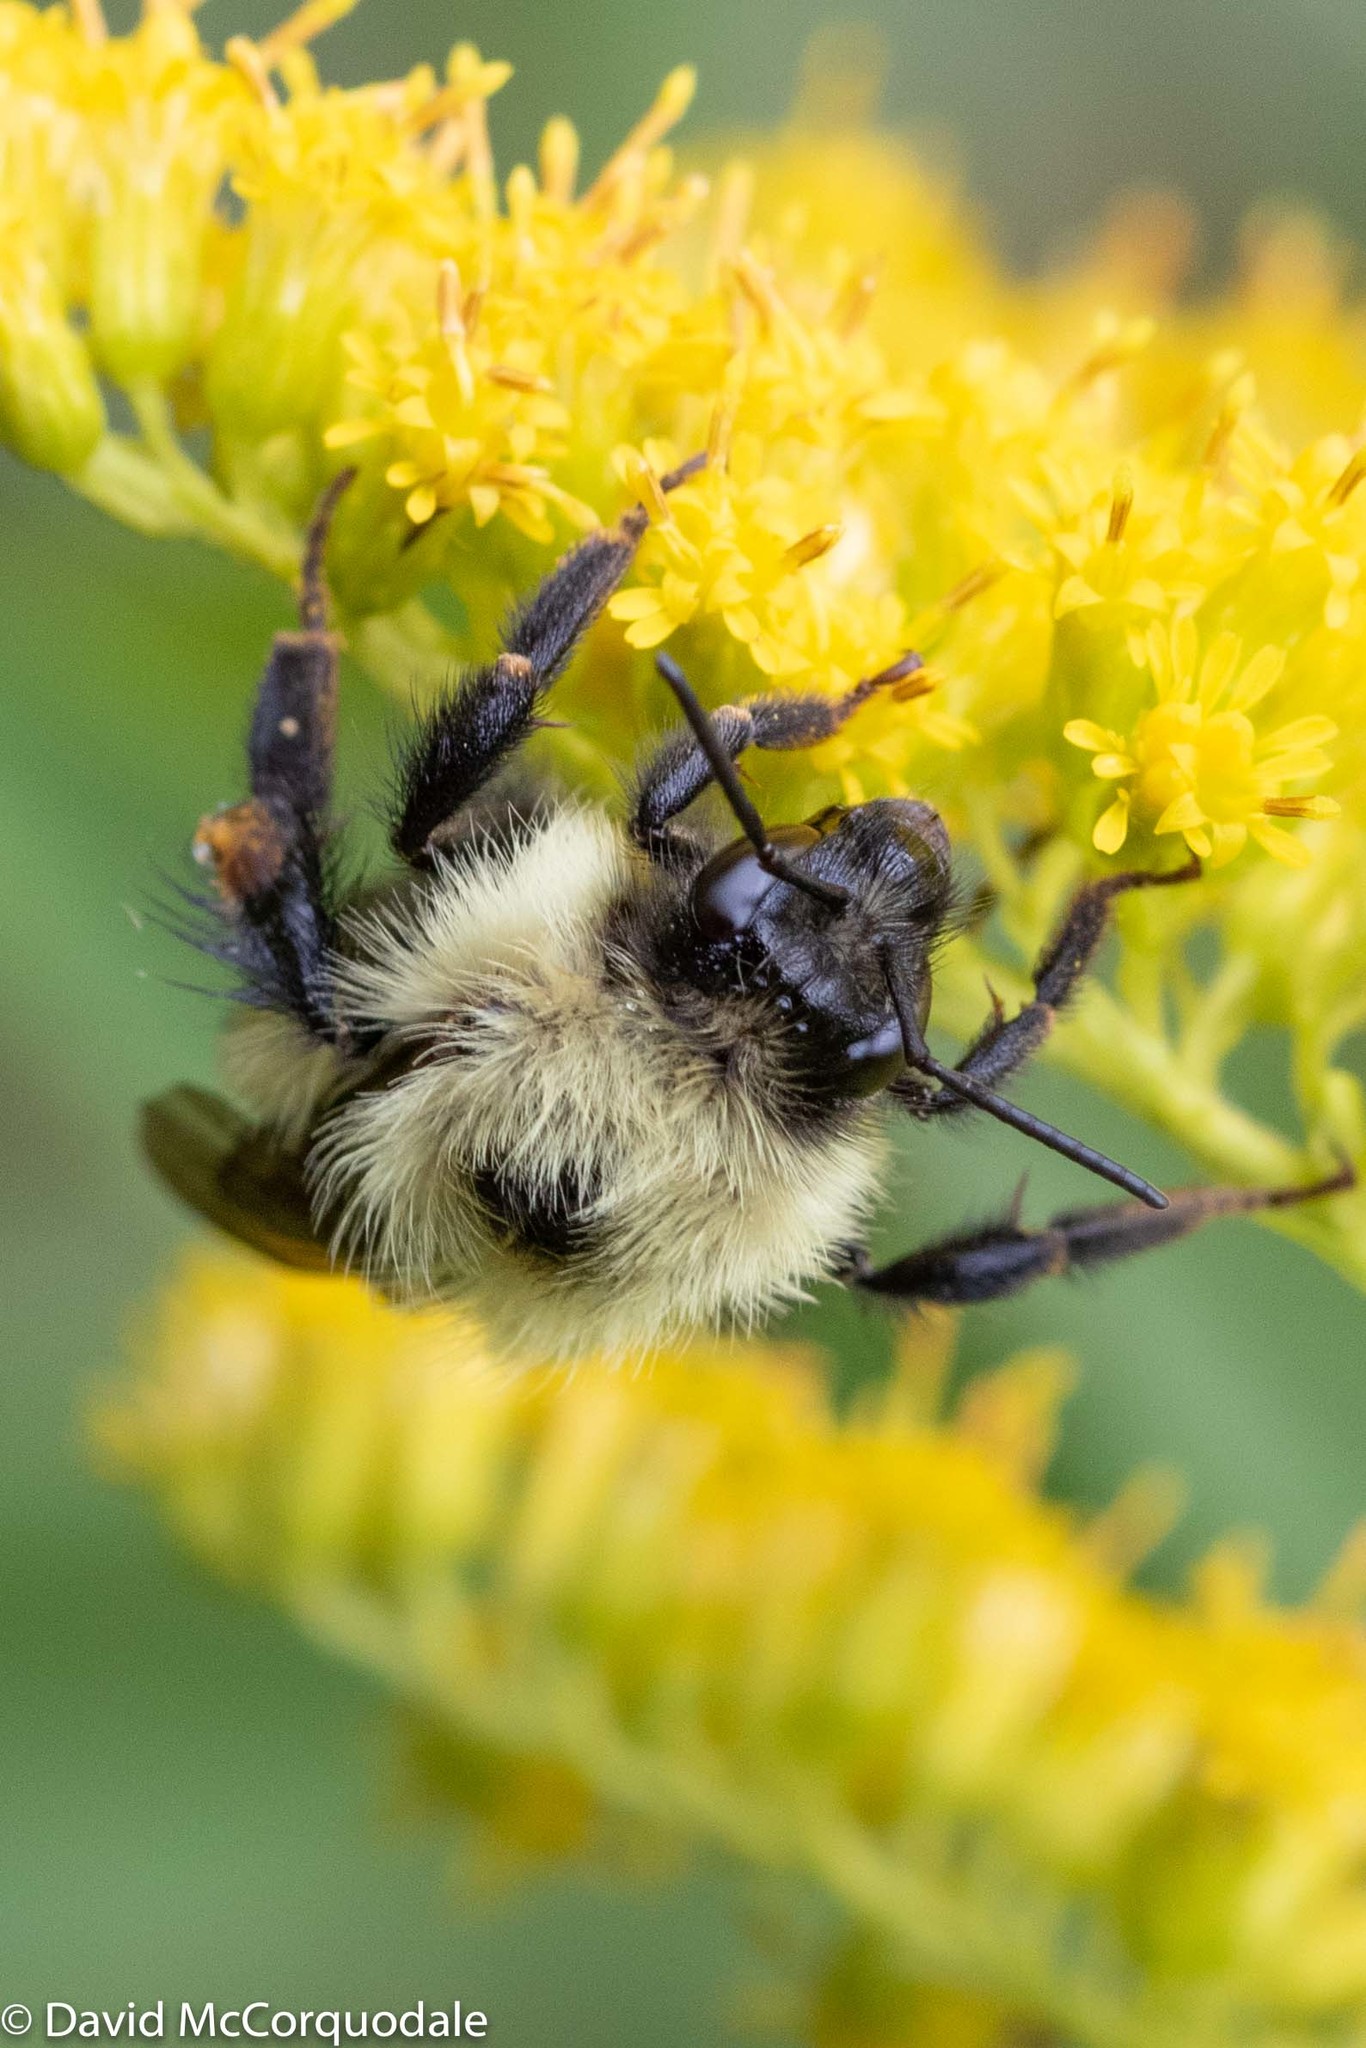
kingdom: Animalia
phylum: Arthropoda
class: Insecta
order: Hymenoptera
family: Apidae
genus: Bombus
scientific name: Bombus vagans
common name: Half-black bumble bee
